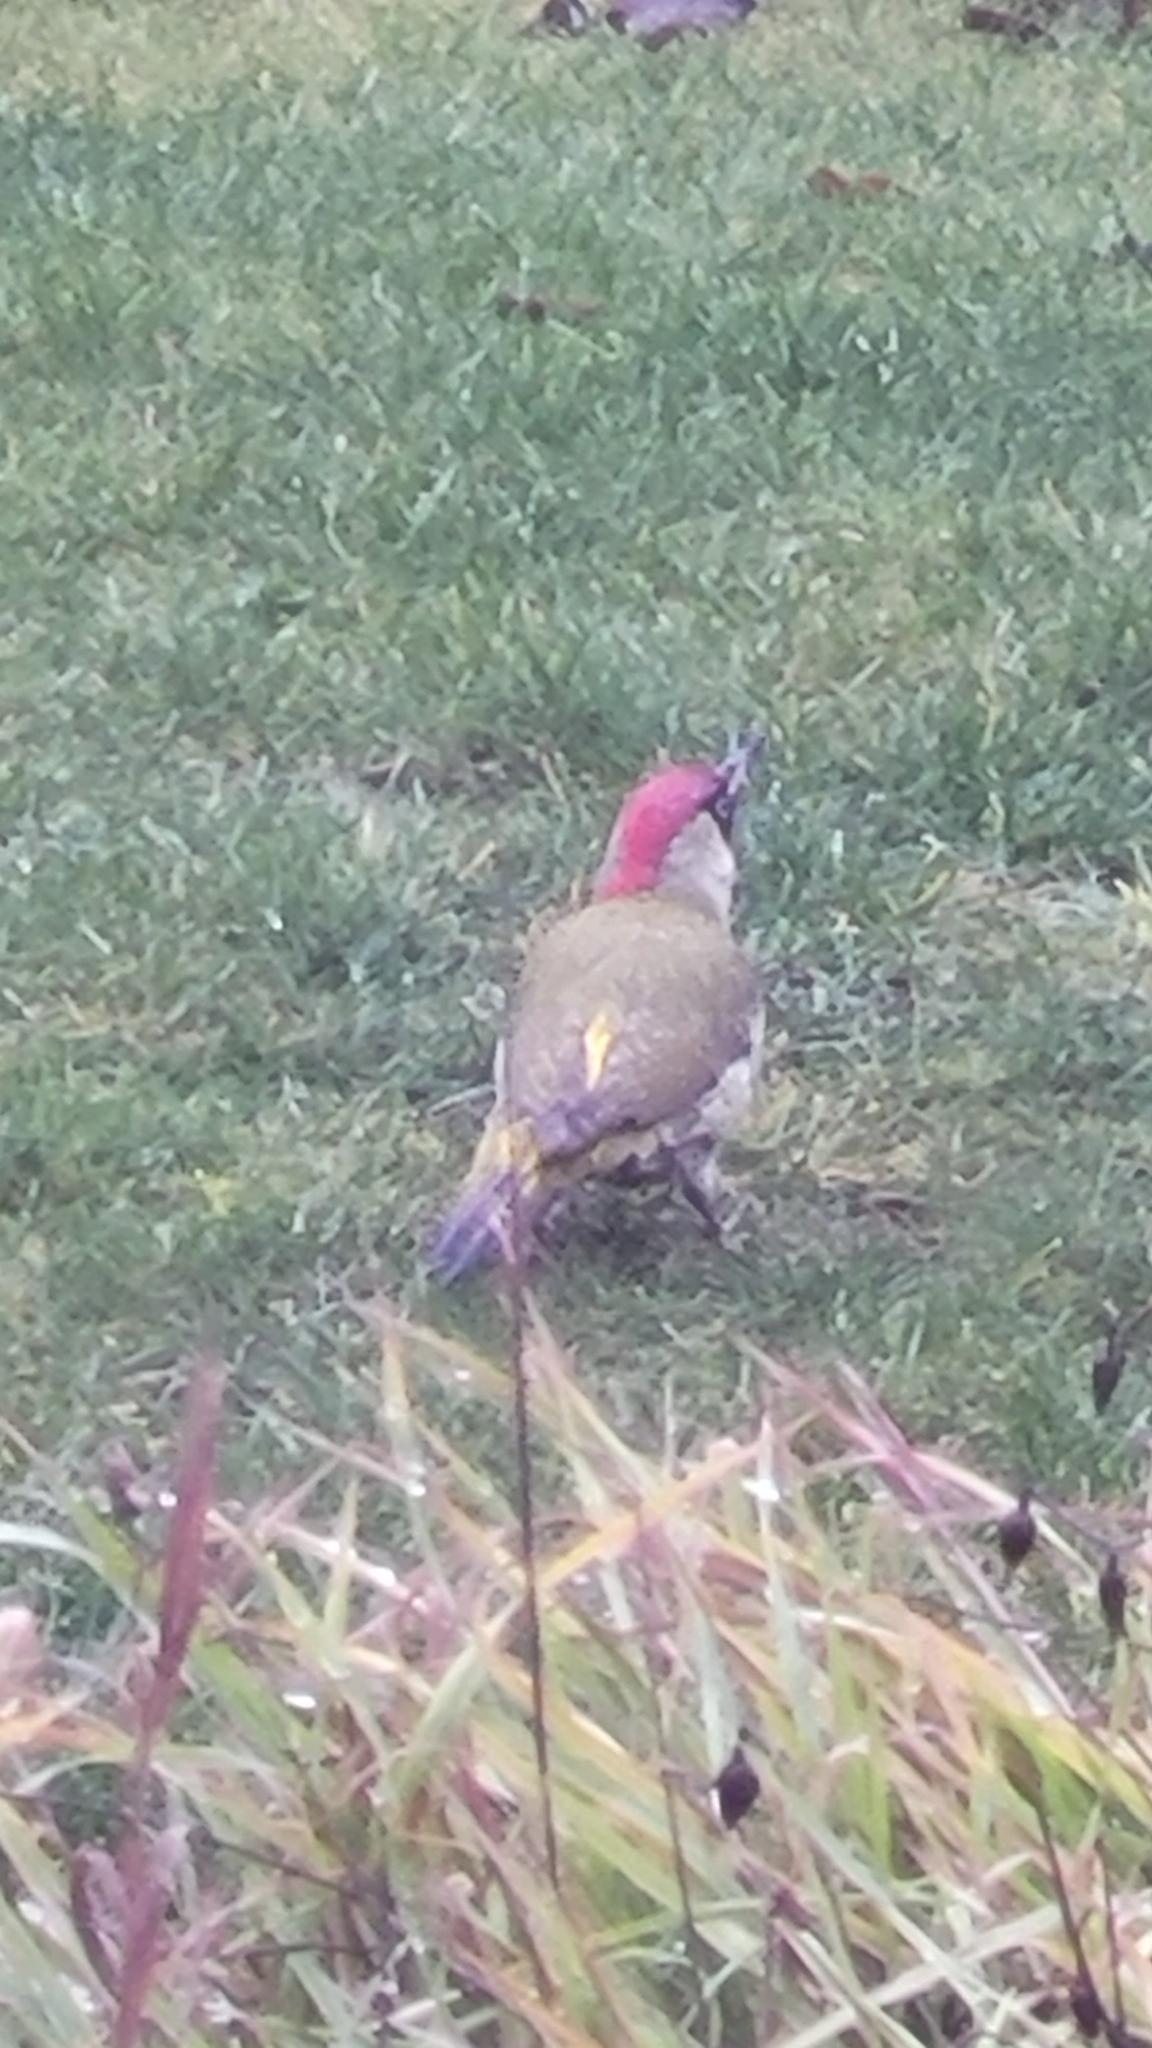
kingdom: Animalia
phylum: Chordata
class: Aves
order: Piciformes
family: Picidae
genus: Picus
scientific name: Picus viridis
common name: European green woodpecker
